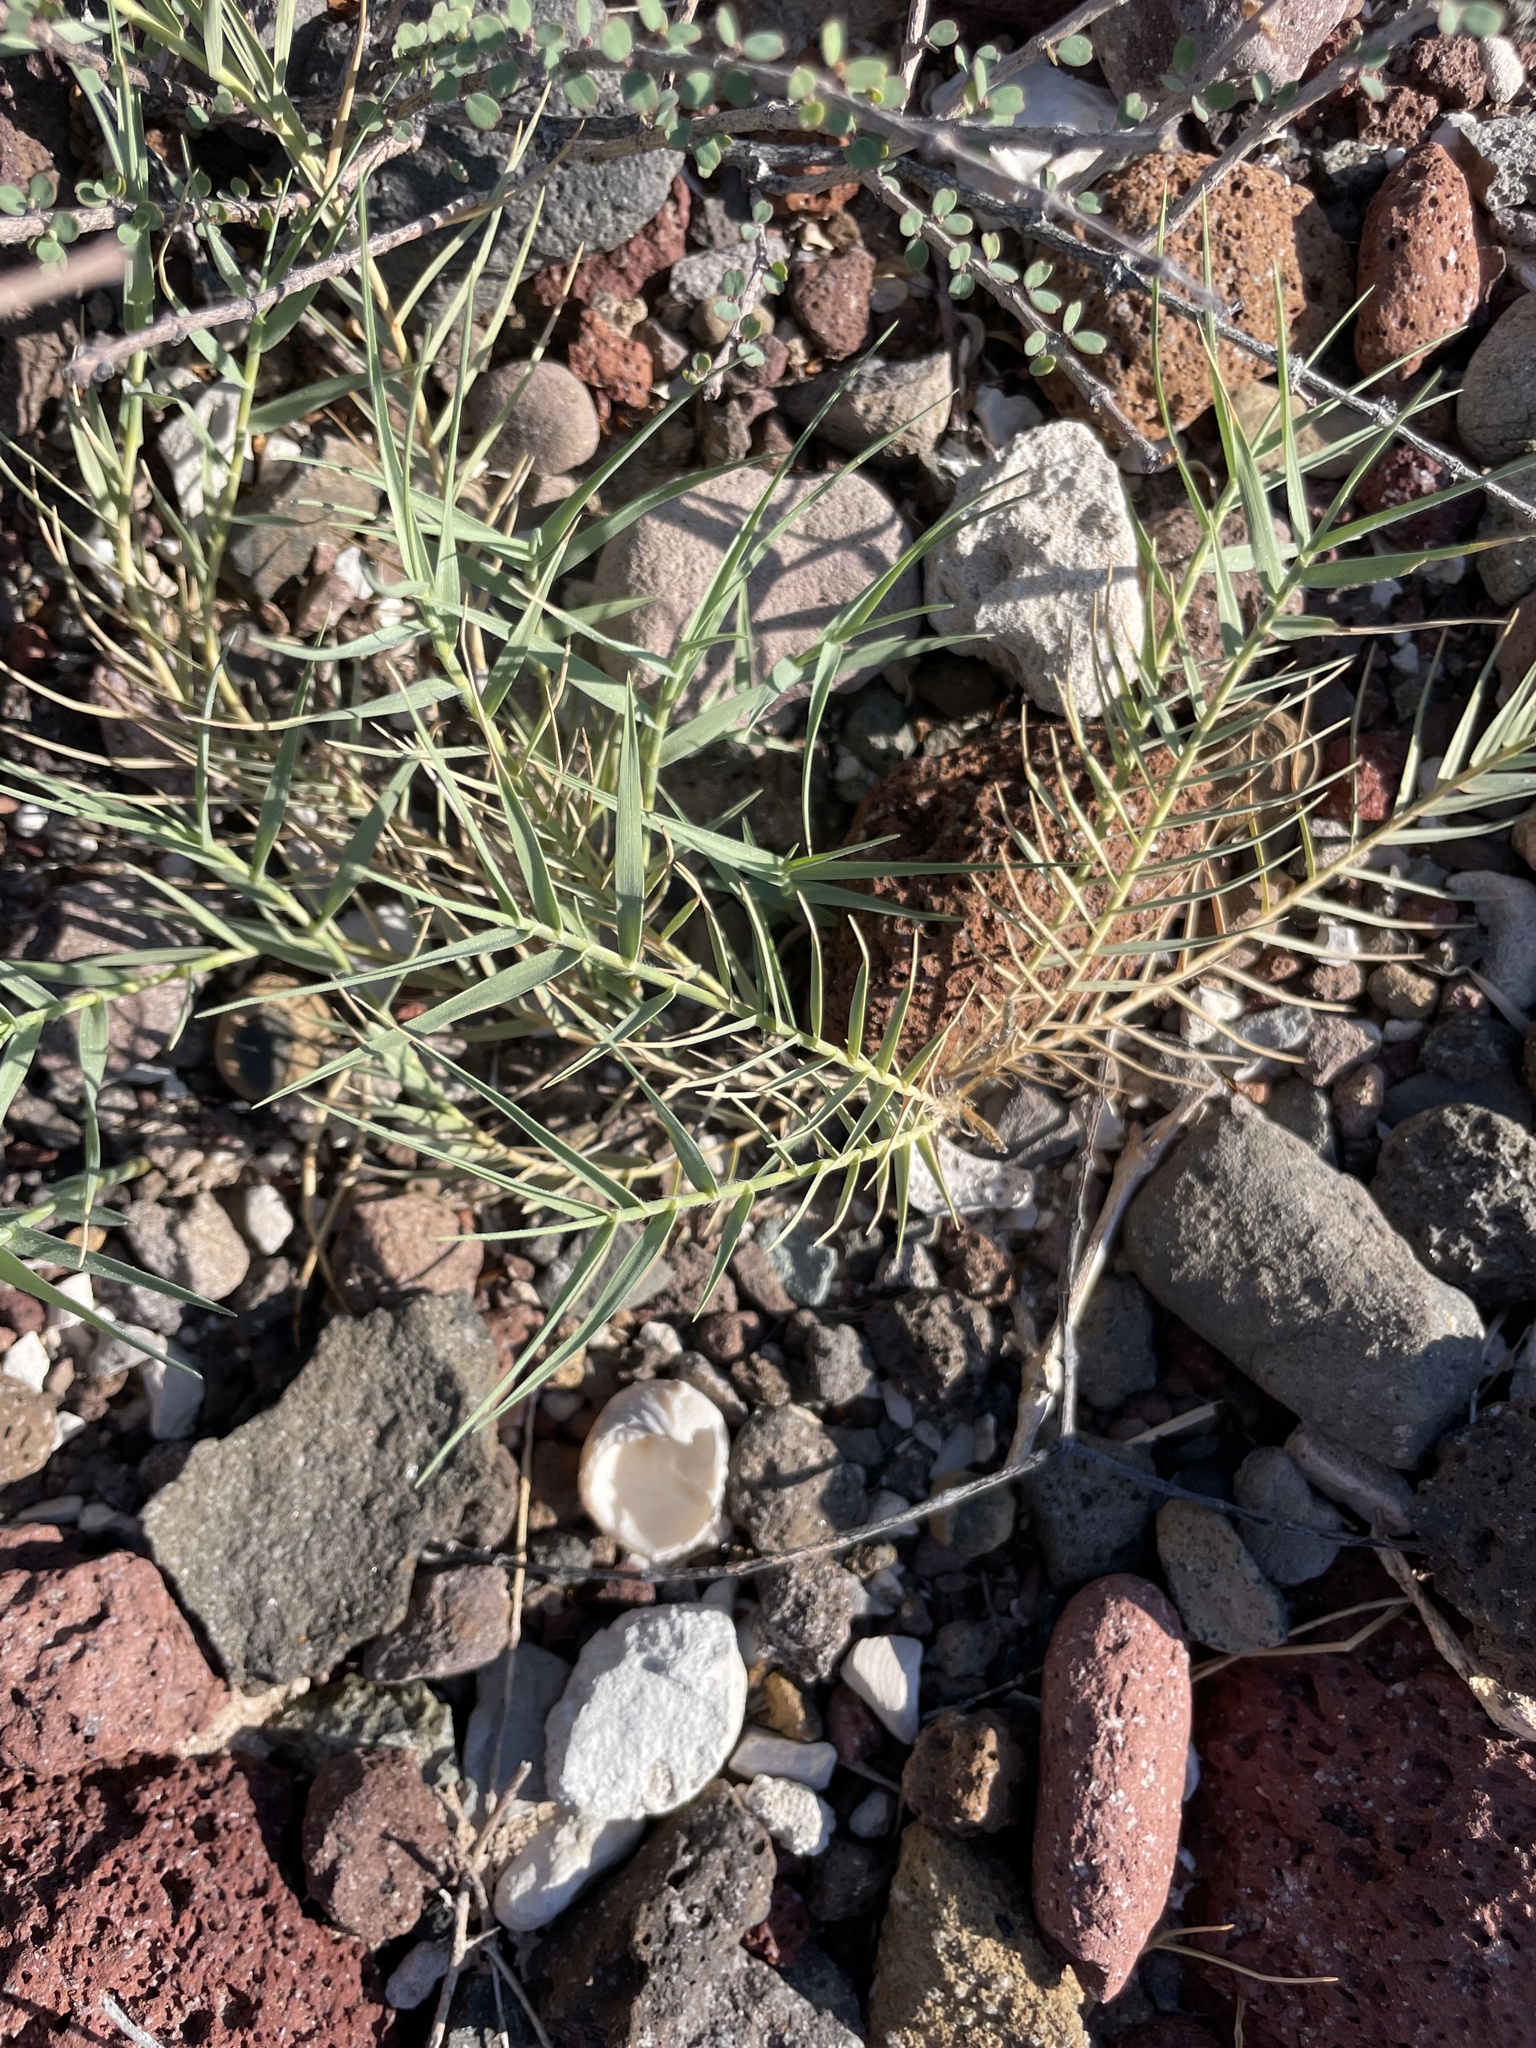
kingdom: Plantae
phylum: Tracheophyta
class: Liliopsida
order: Poales
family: Poaceae
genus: Distichlis
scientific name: Distichlis spicata
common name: Saltgrass
